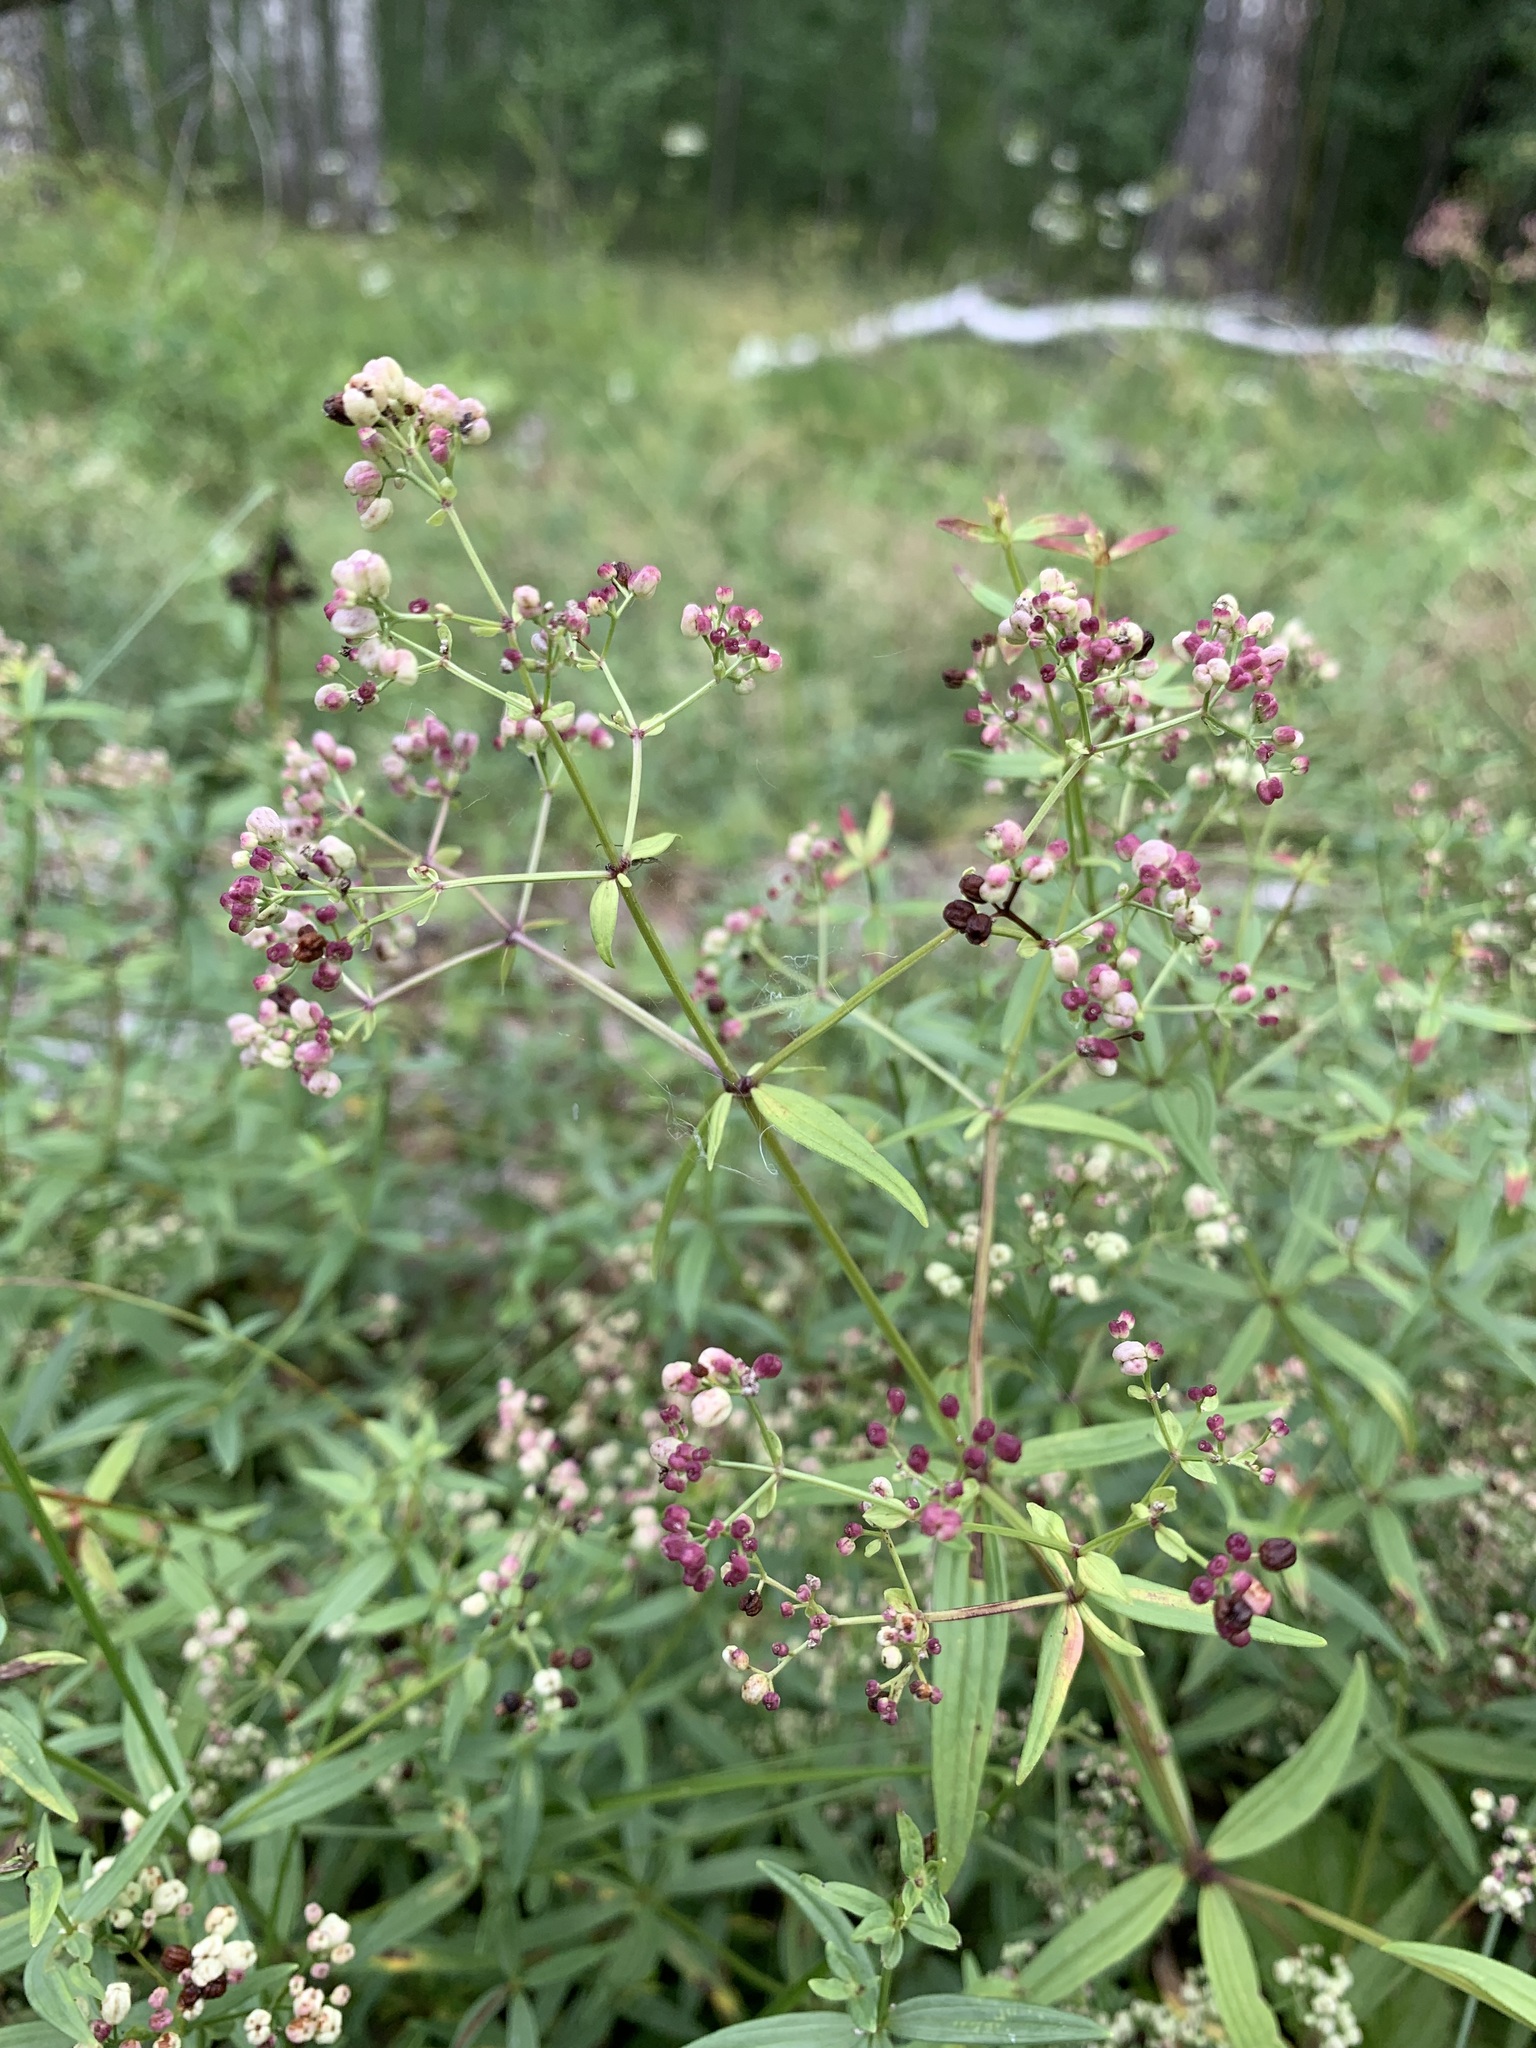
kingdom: Plantae
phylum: Tracheophyta
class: Magnoliopsida
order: Gentianales
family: Rubiaceae
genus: Galium
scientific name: Galium rubioides
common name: European bedstraw
